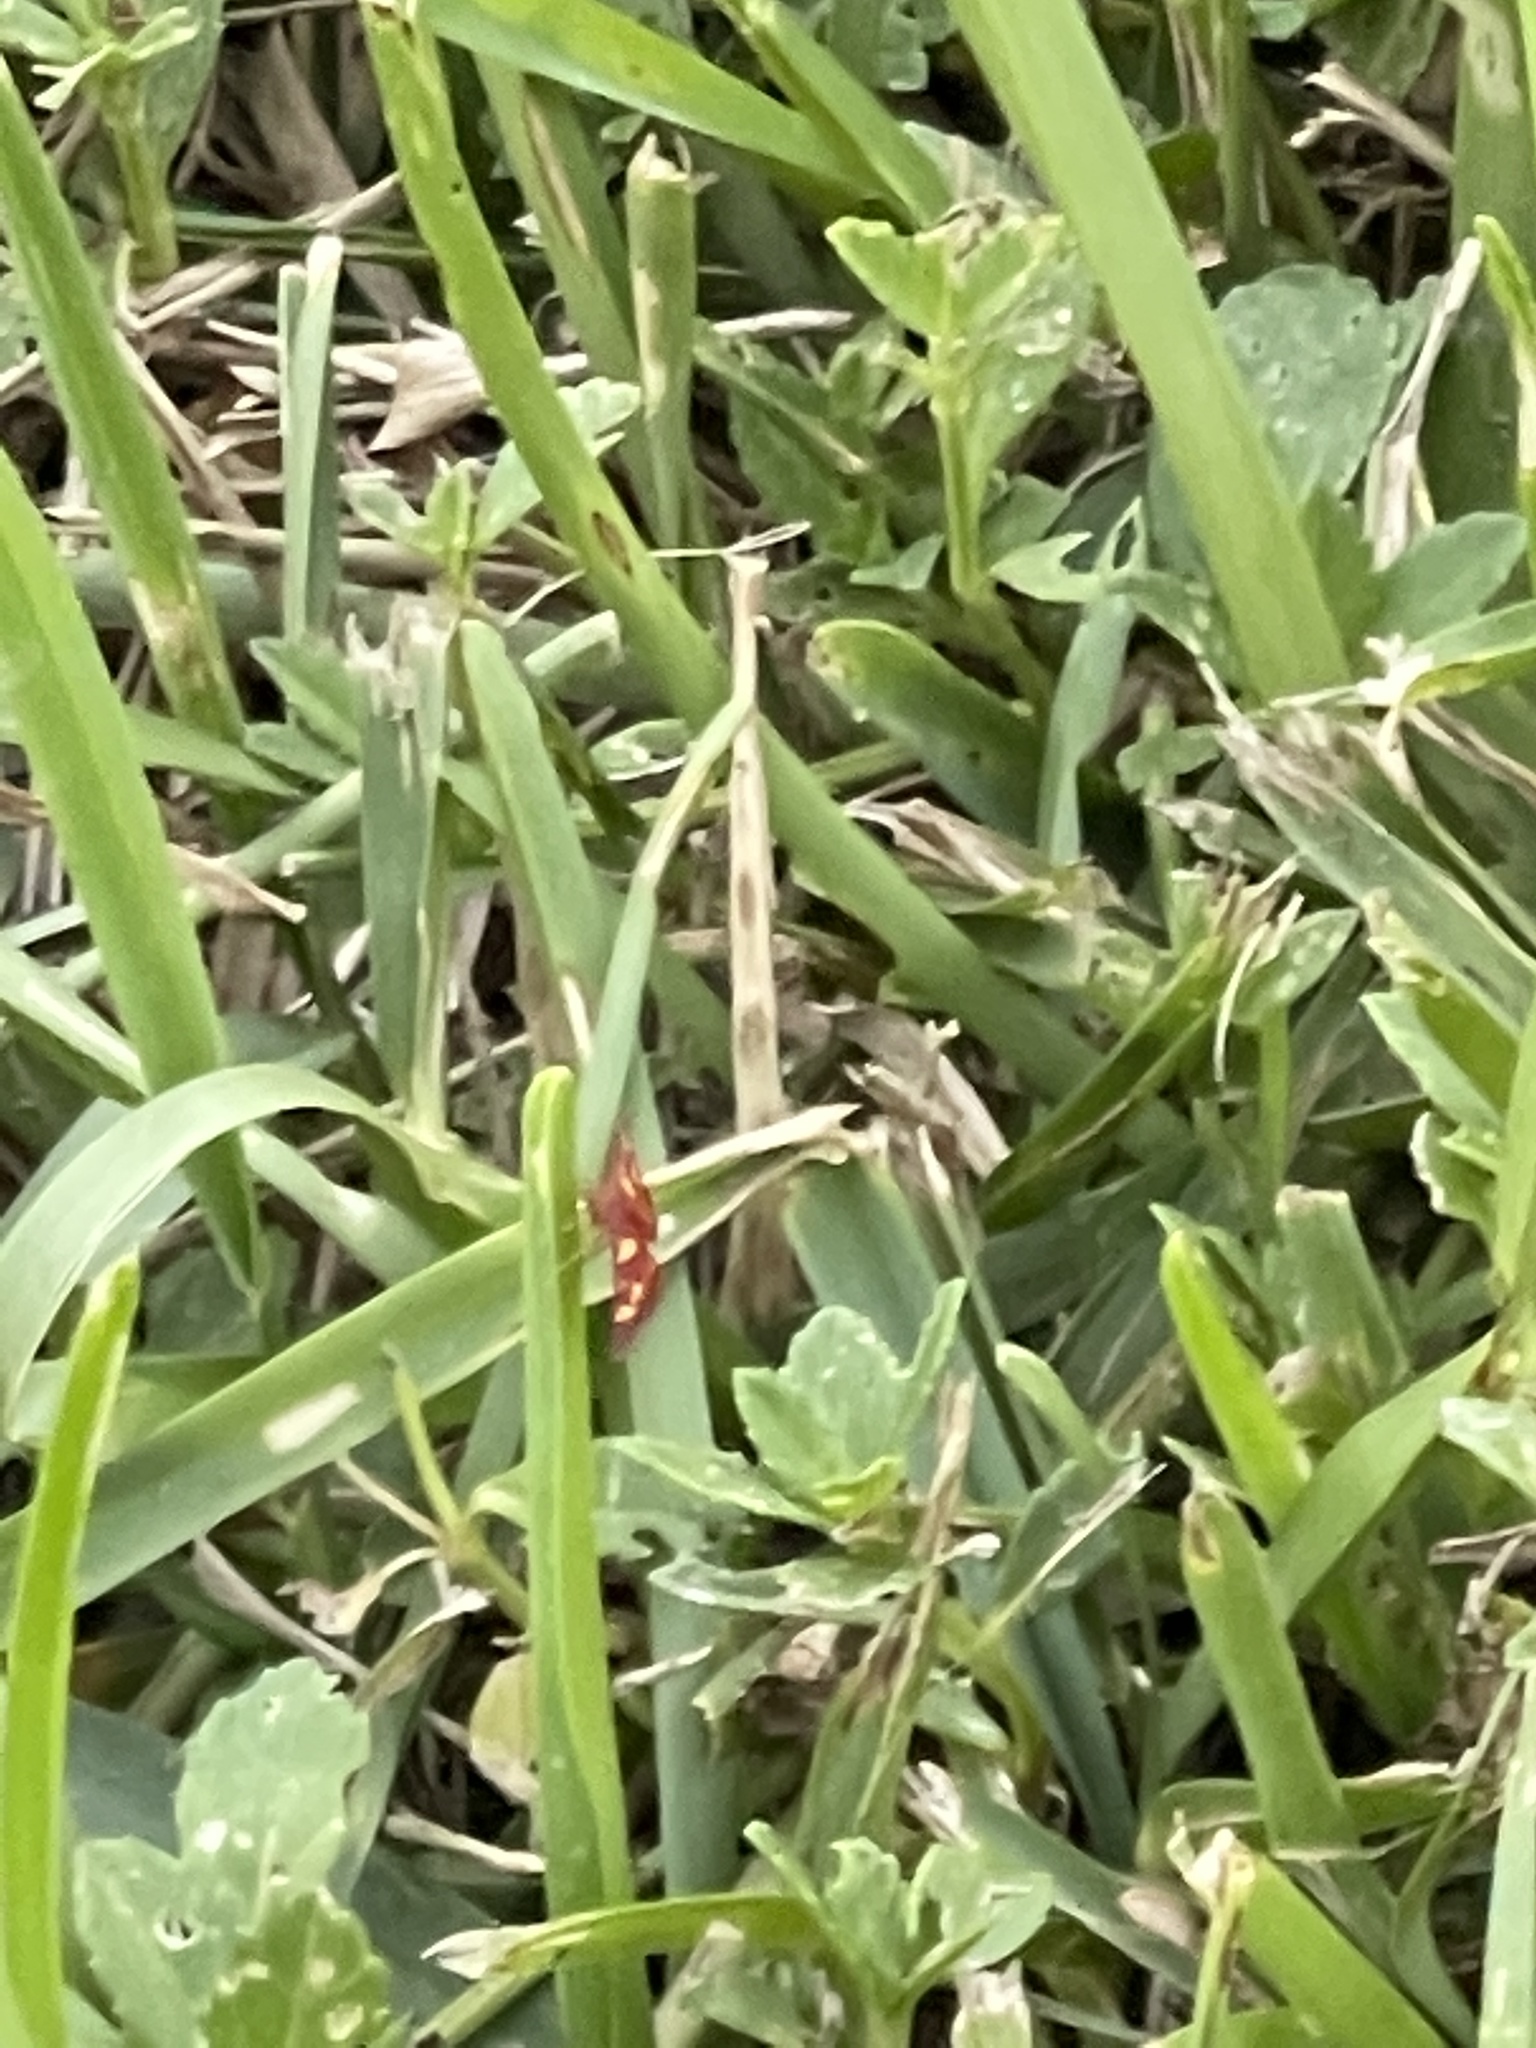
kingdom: Animalia
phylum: Arthropoda
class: Insecta
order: Lepidoptera
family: Crambidae
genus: Pyrausta
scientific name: Pyrausta tyralis
